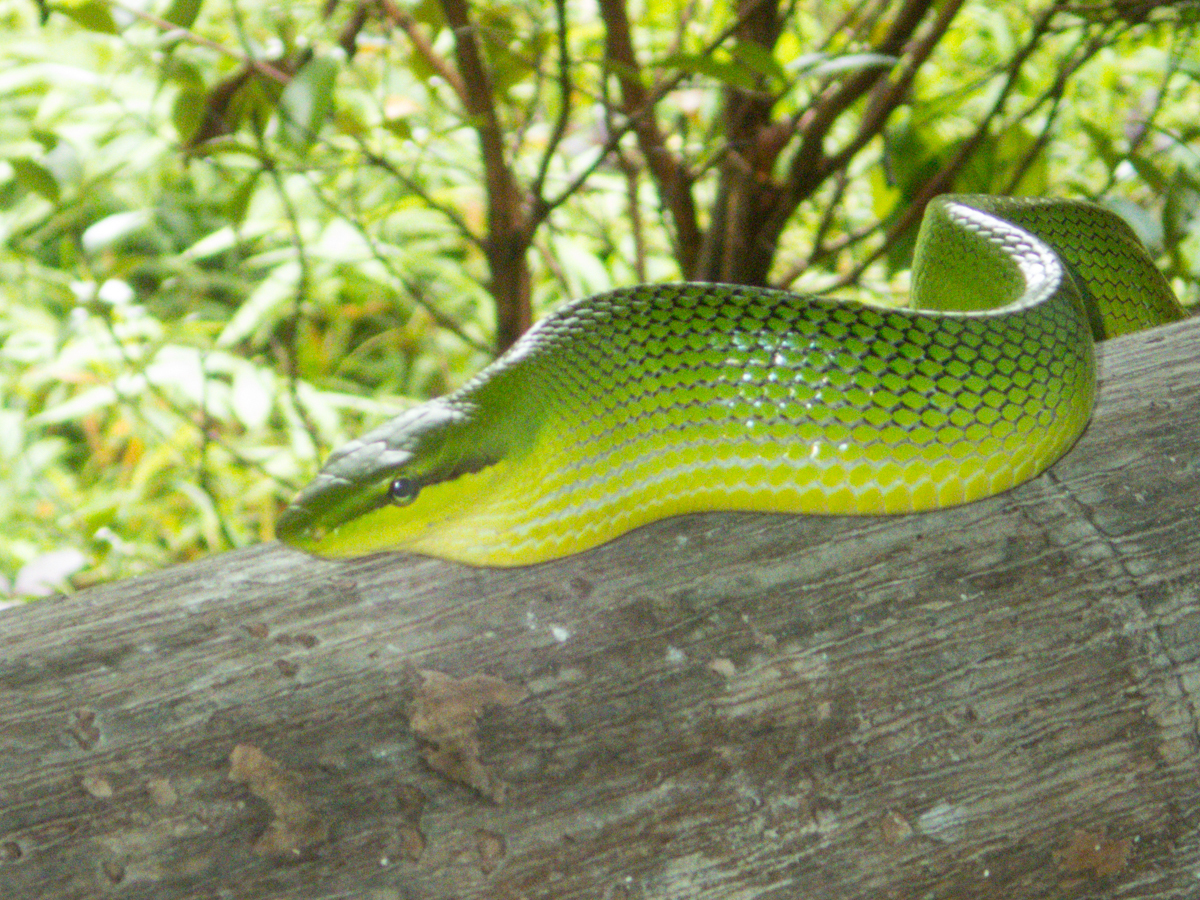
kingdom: Animalia
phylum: Chordata
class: Squamata
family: Colubridae
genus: Gonyosoma
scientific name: Gonyosoma oxycephalum
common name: Red-tailed racer
